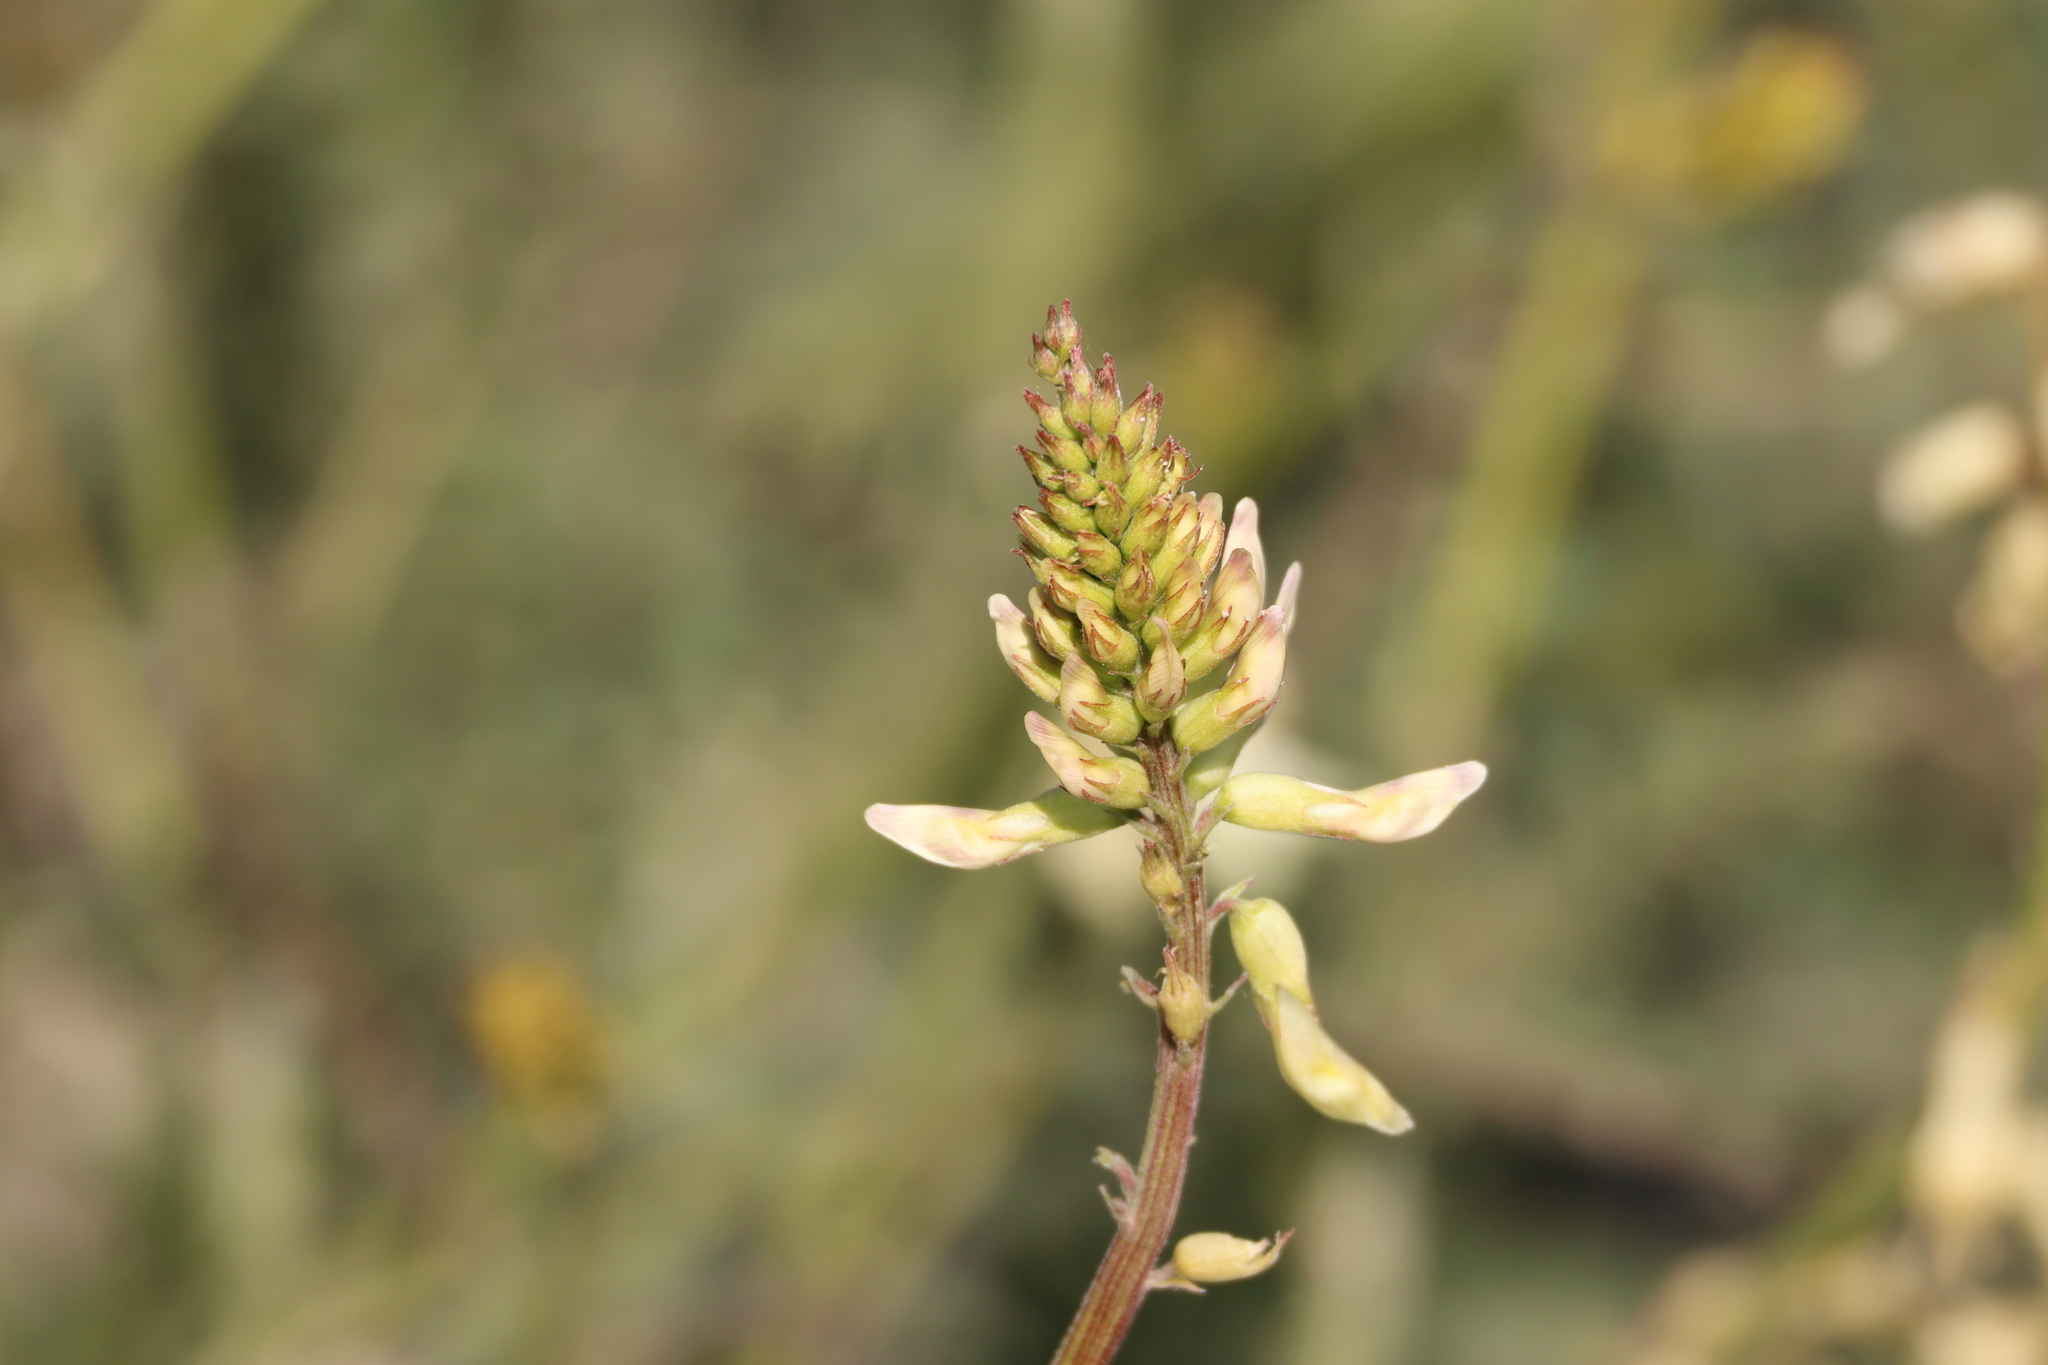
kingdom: Plantae
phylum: Tracheophyta
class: Magnoliopsida
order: Fabales
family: Fabaceae
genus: Astragalus
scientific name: Astragalus trichopodus
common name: Santa barbara milk-vetch
